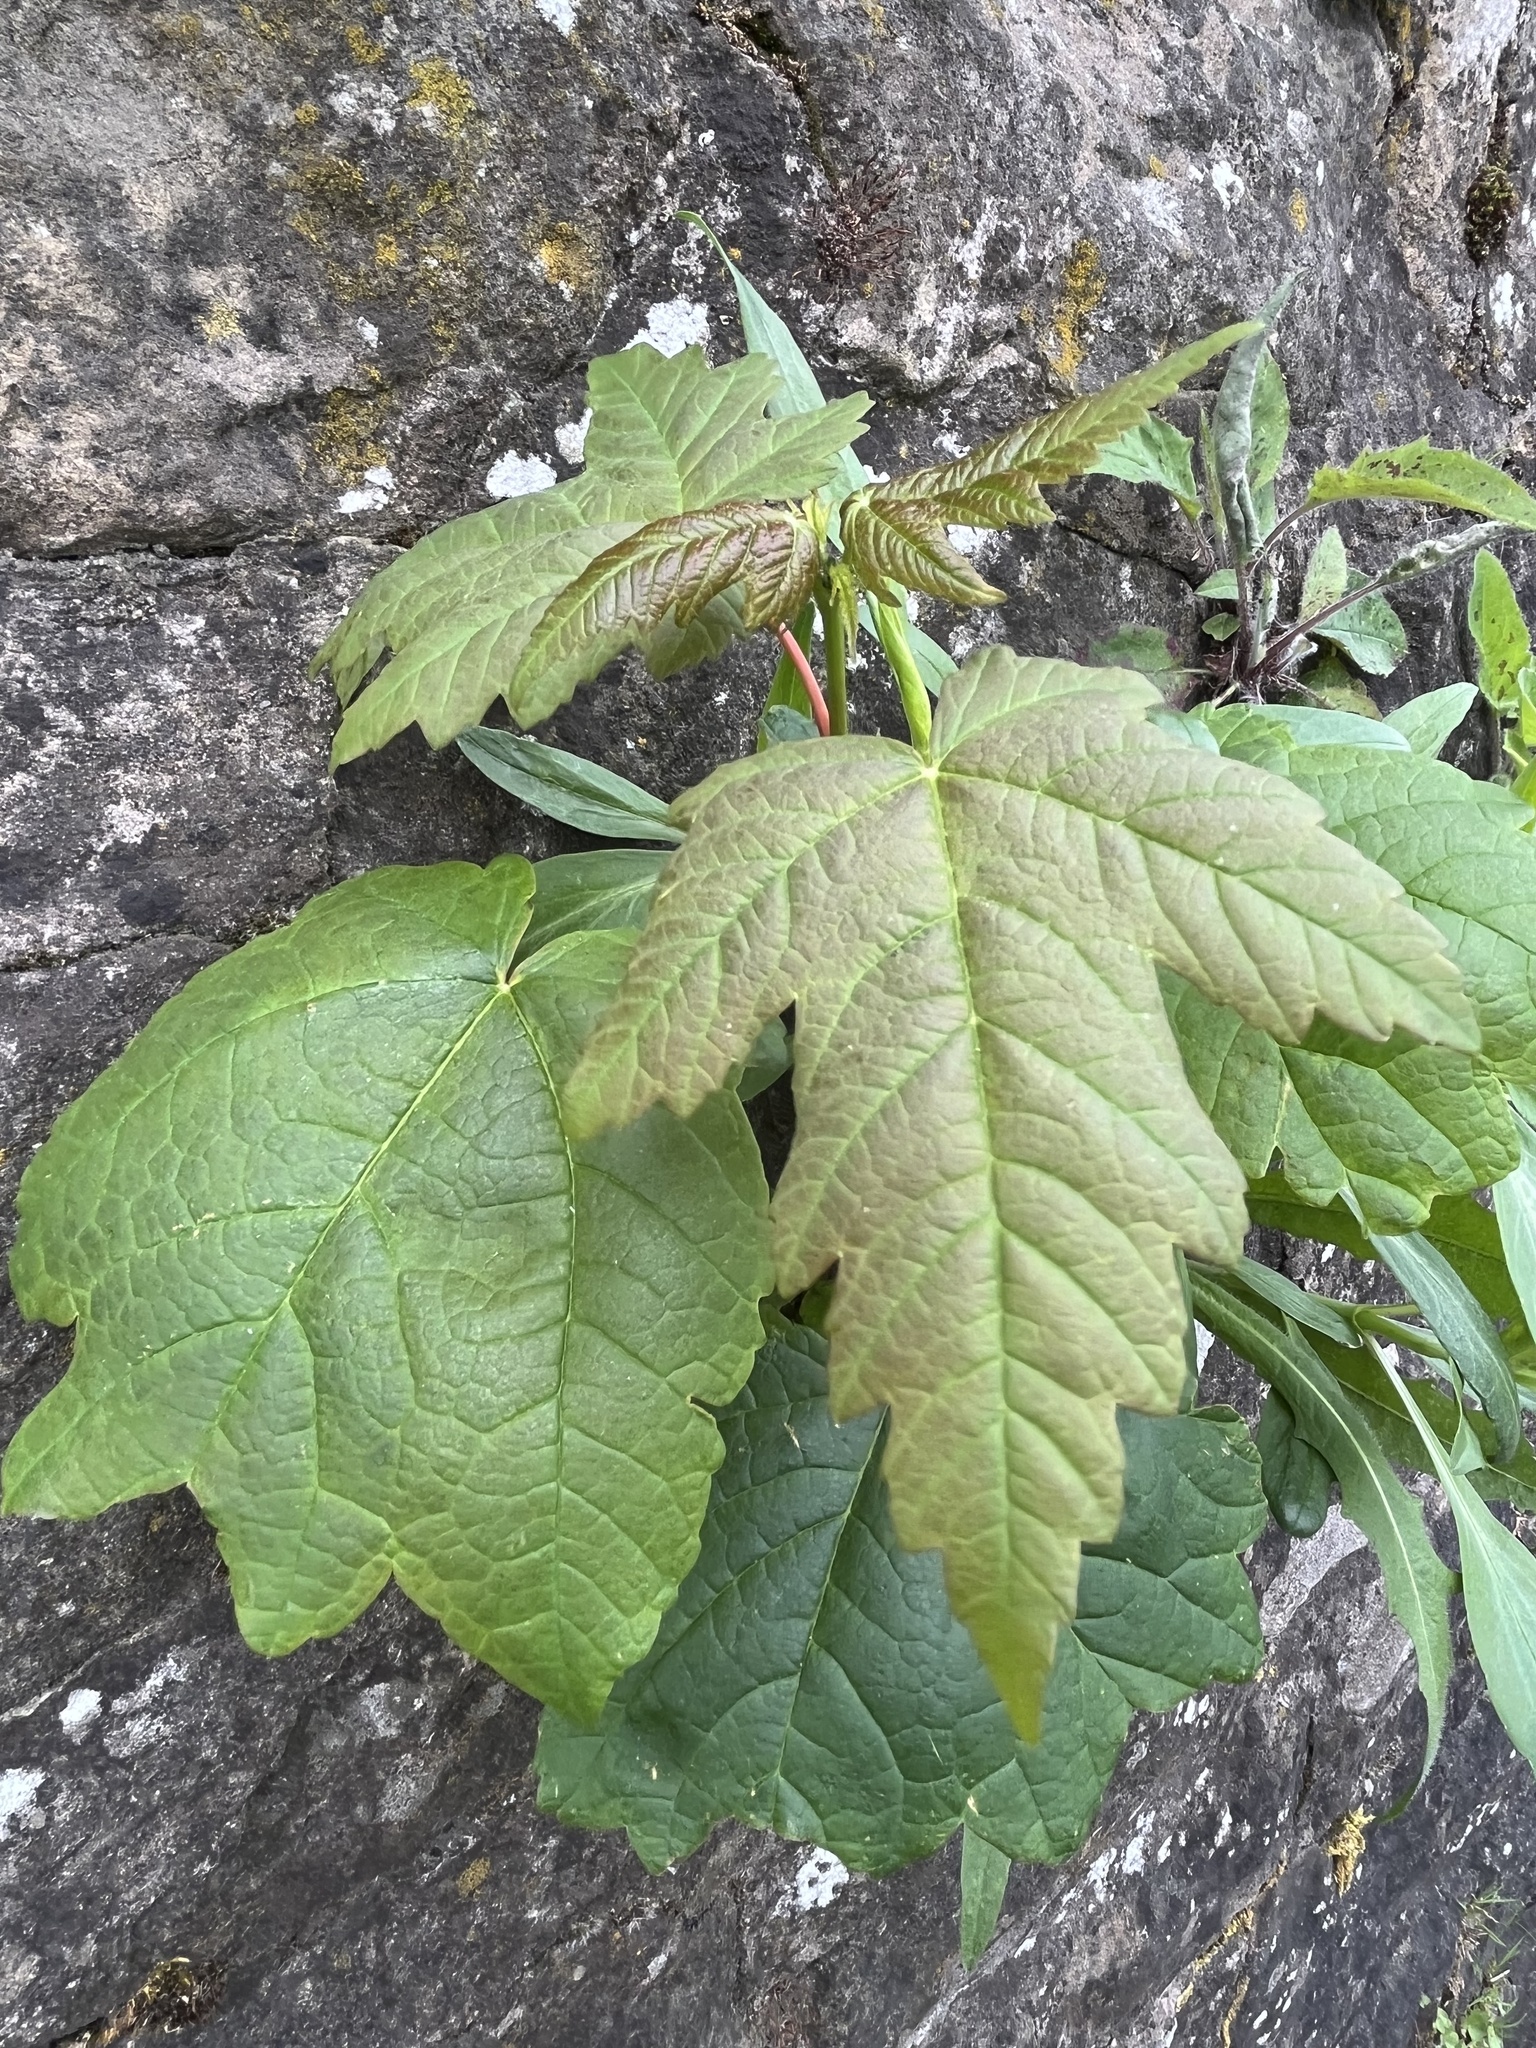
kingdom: Plantae
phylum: Tracheophyta
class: Magnoliopsida
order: Sapindales
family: Sapindaceae
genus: Acer
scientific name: Acer pseudoplatanus
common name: Sycamore
